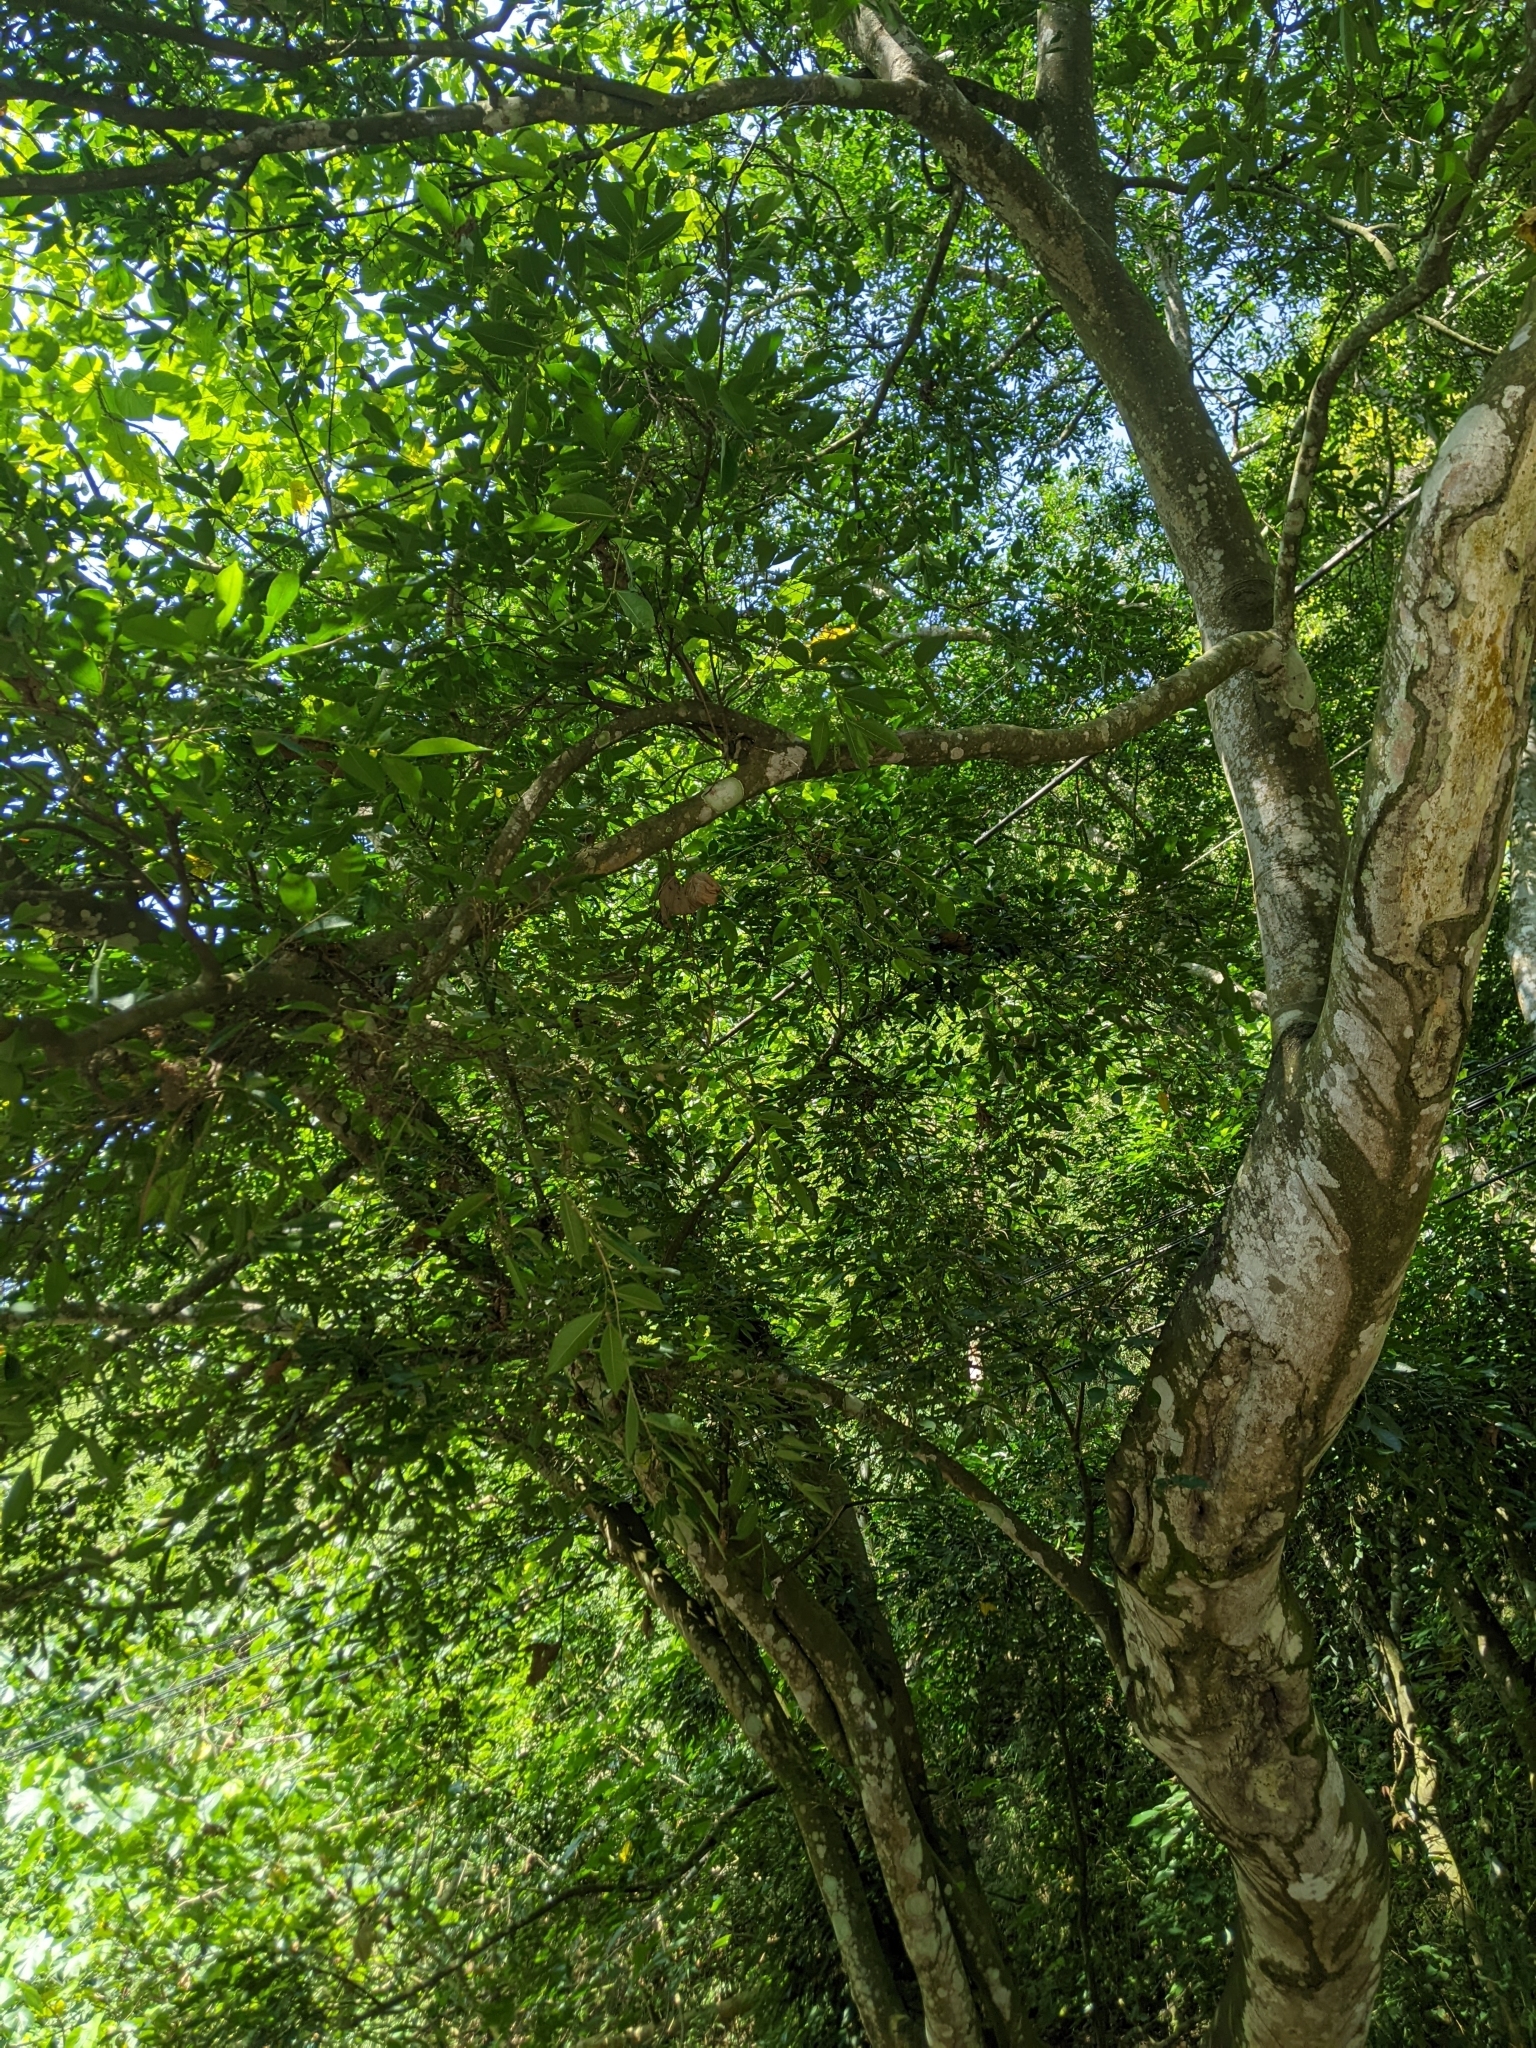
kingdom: Plantae
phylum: Tracheophyta
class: Magnoliopsida
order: Rosales
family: Moraceae
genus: Ficus
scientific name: Ficus ampelos
